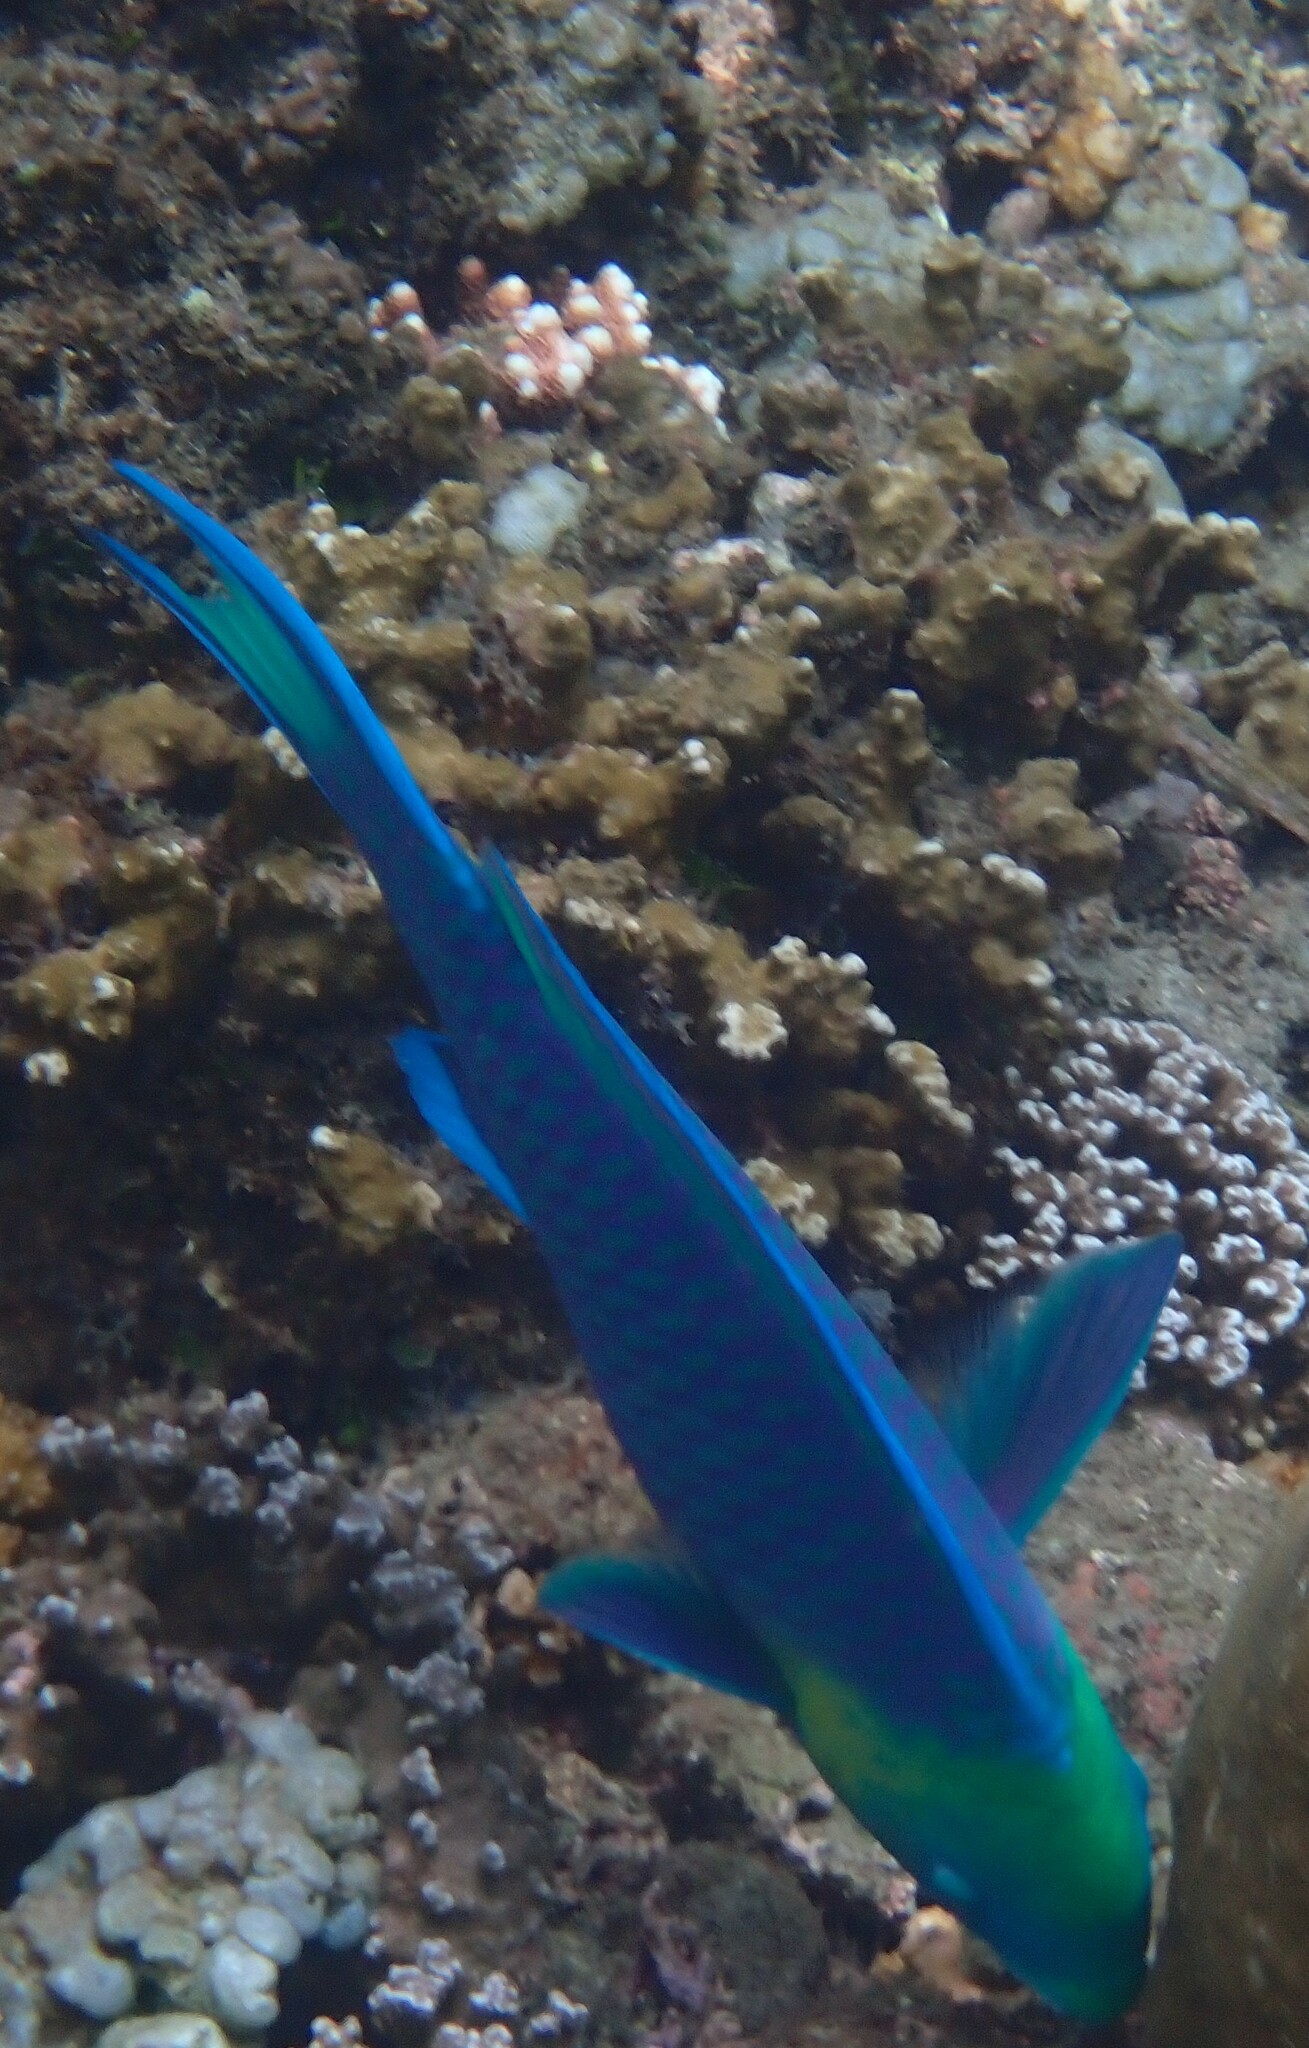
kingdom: Animalia
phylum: Chordata
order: Perciformes
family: Scaridae
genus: Scarus
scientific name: Scarus spinus
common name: Greensnout parrotfish
